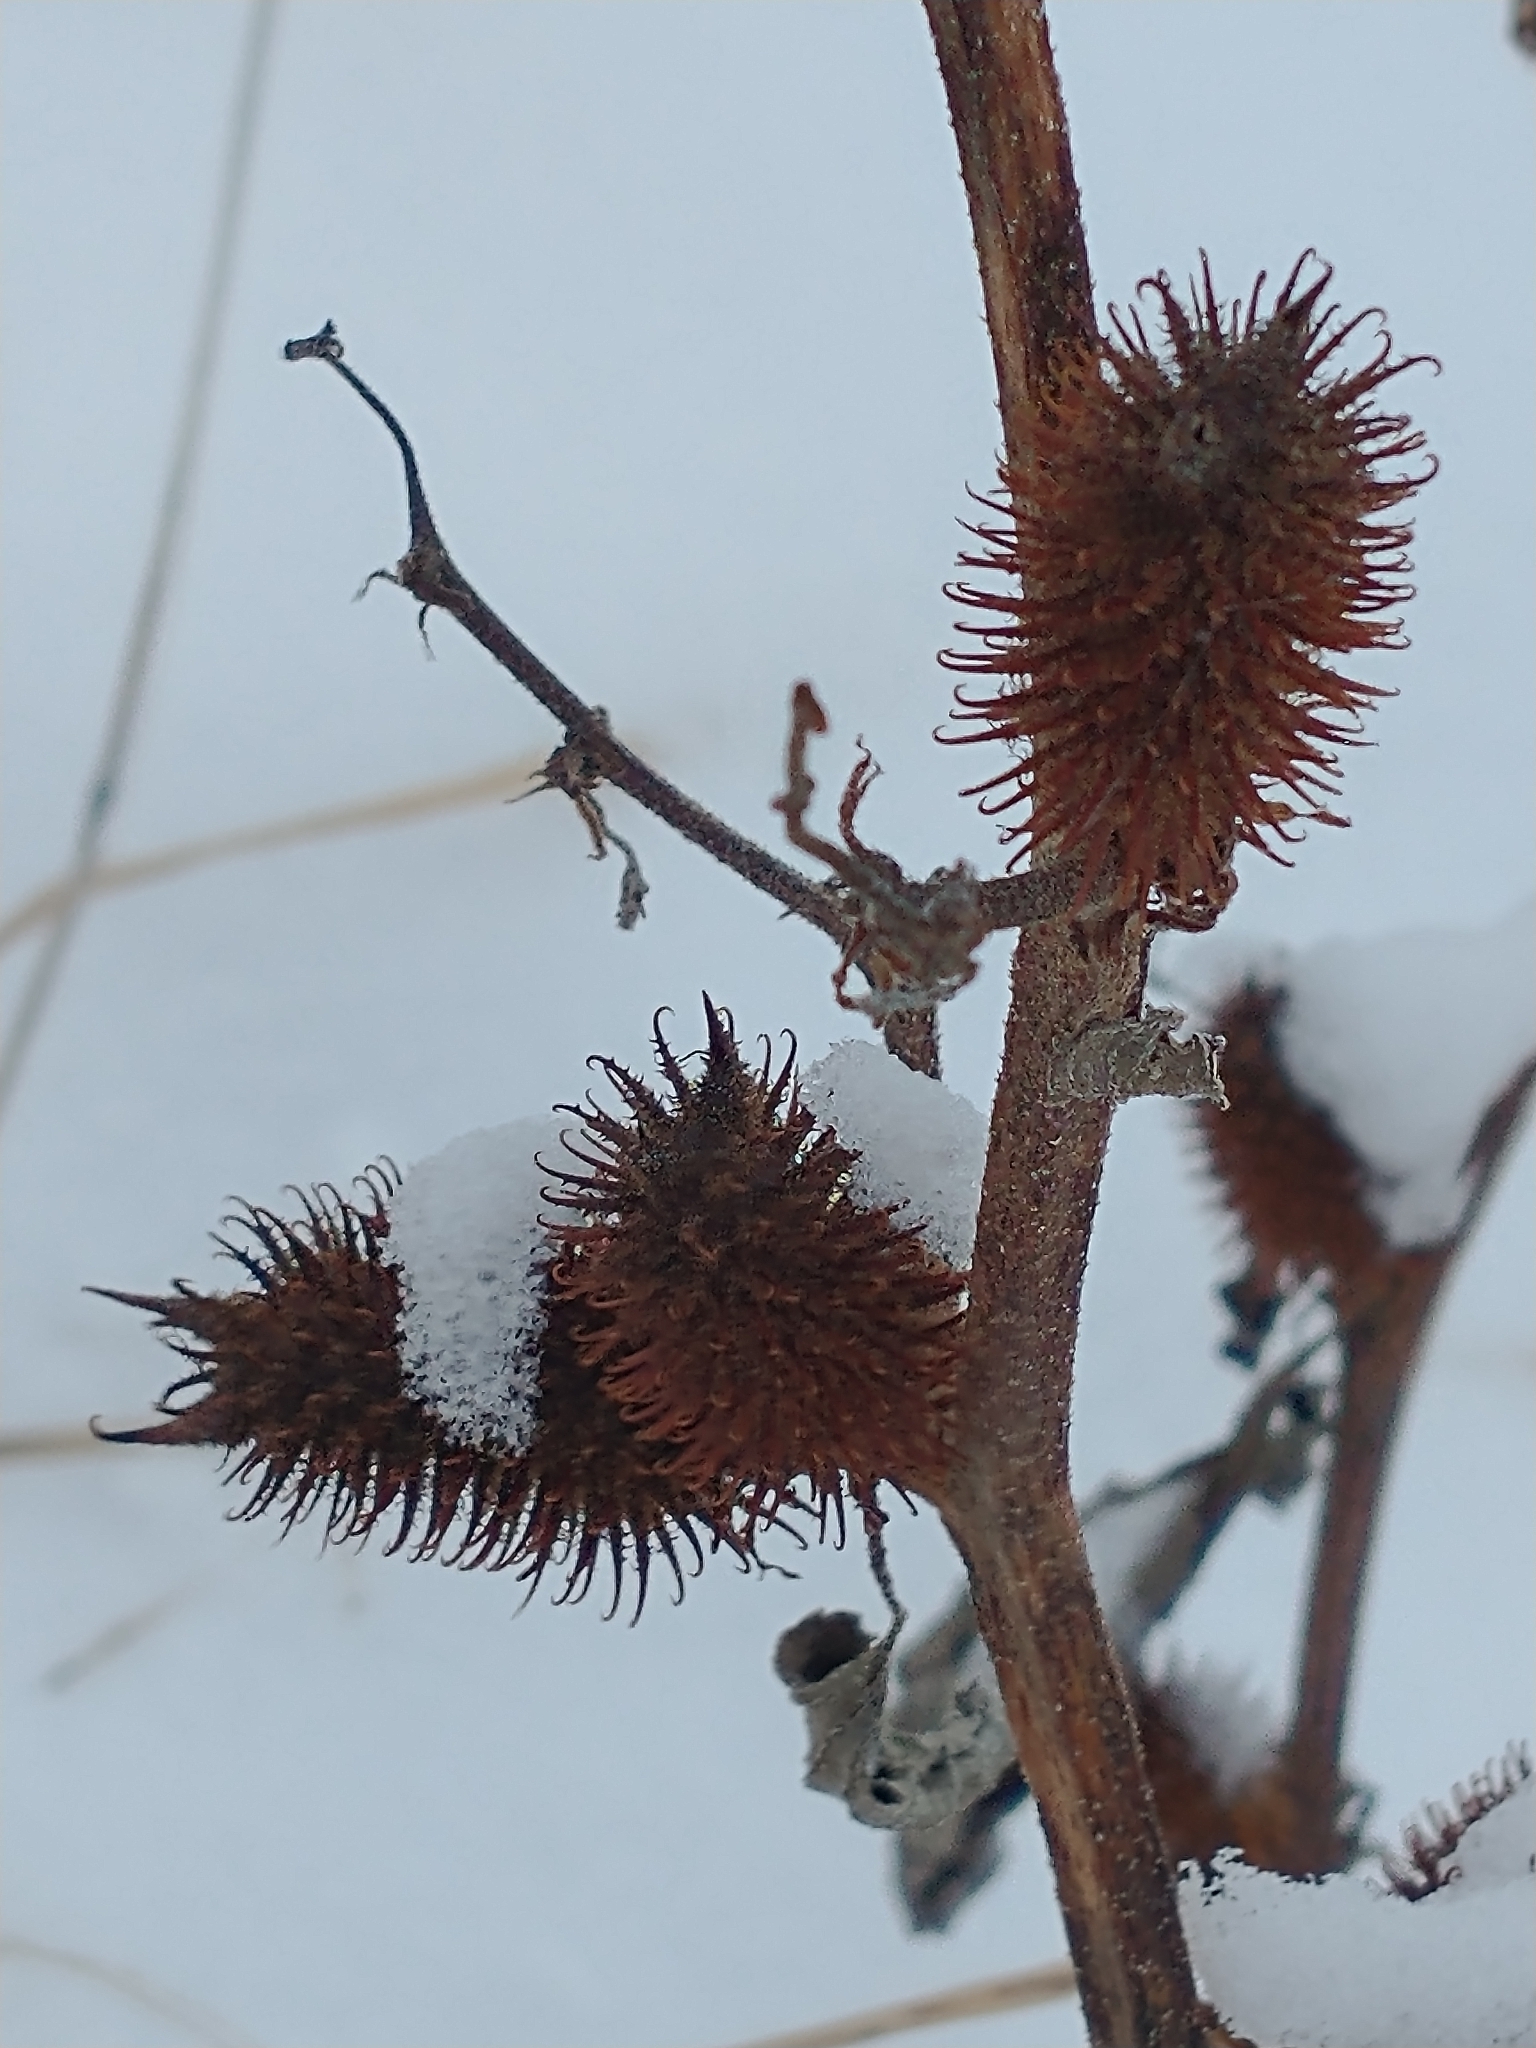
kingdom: Plantae
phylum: Tracheophyta
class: Magnoliopsida
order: Asterales
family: Asteraceae
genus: Xanthium
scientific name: Xanthium strumarium
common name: Rough cocklebur
